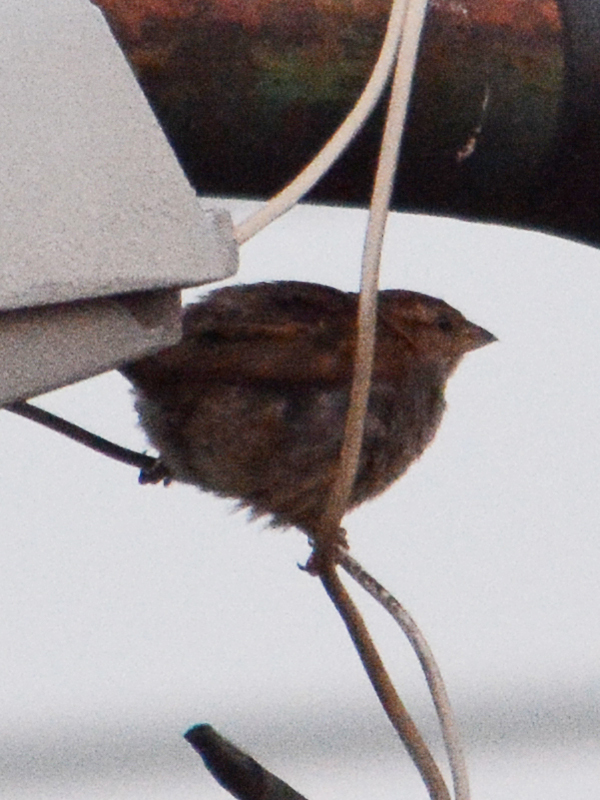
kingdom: Animalia
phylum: Chordata
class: Aves
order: Passeriformes
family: Passeridae
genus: Passer
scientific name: Passer domesticus
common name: House sparrow
